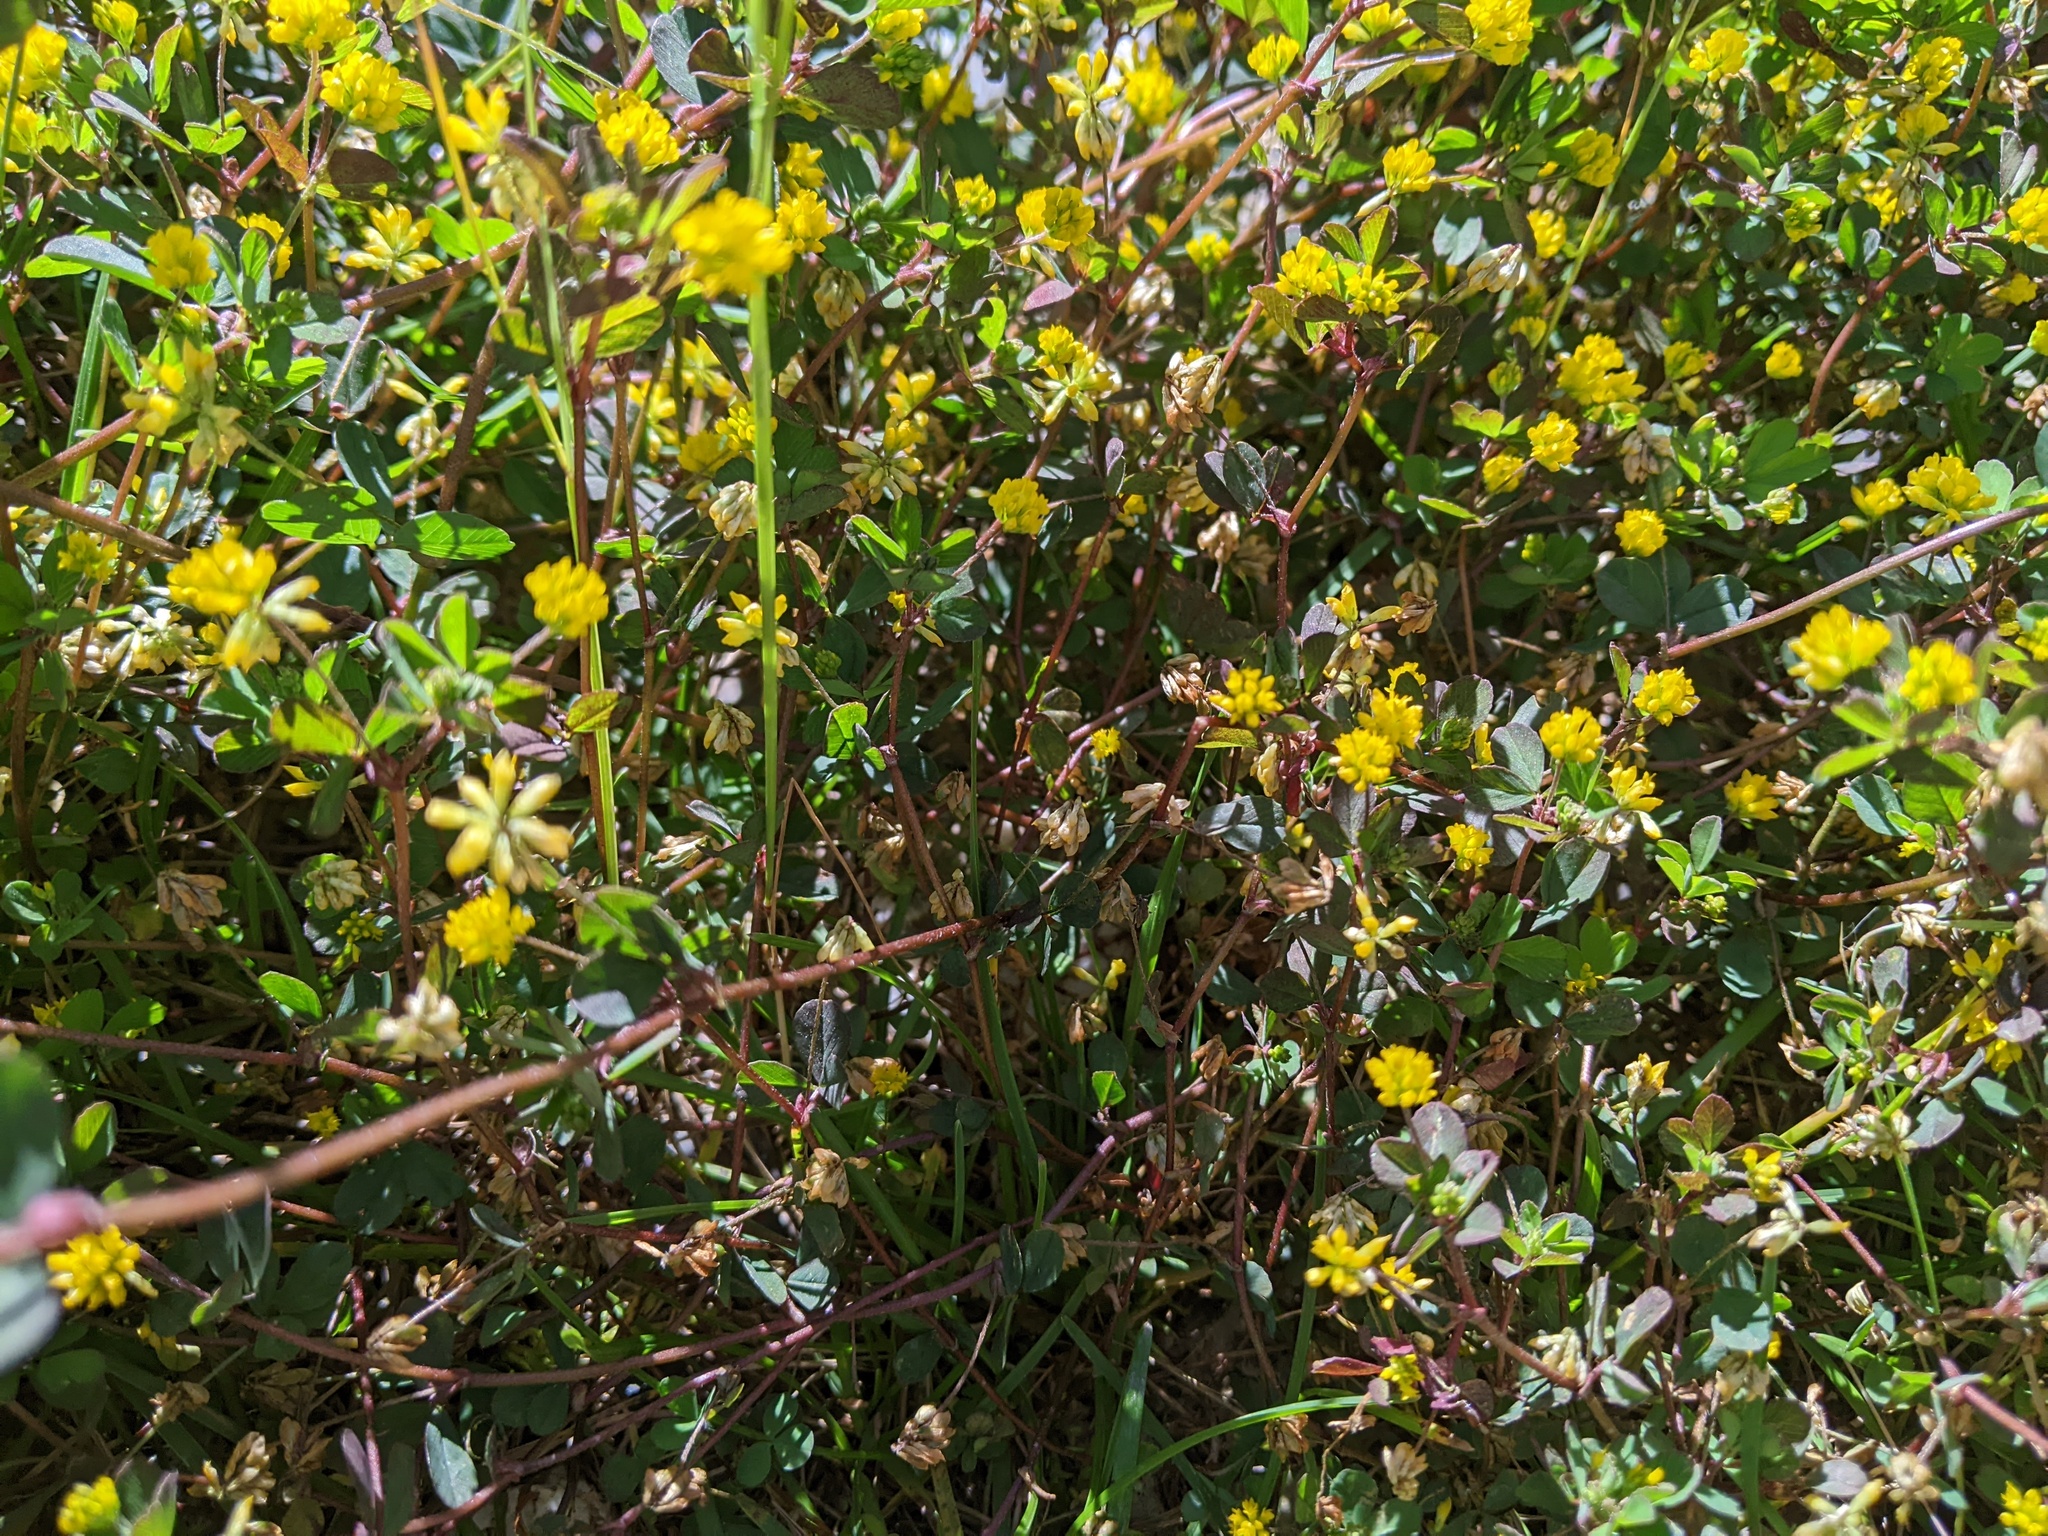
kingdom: Plantae
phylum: Tracheophyta
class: Magnoliopsida
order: Fabales
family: Fabaceae
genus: Trifolium
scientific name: Trifolium dubium
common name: Suckling clover
